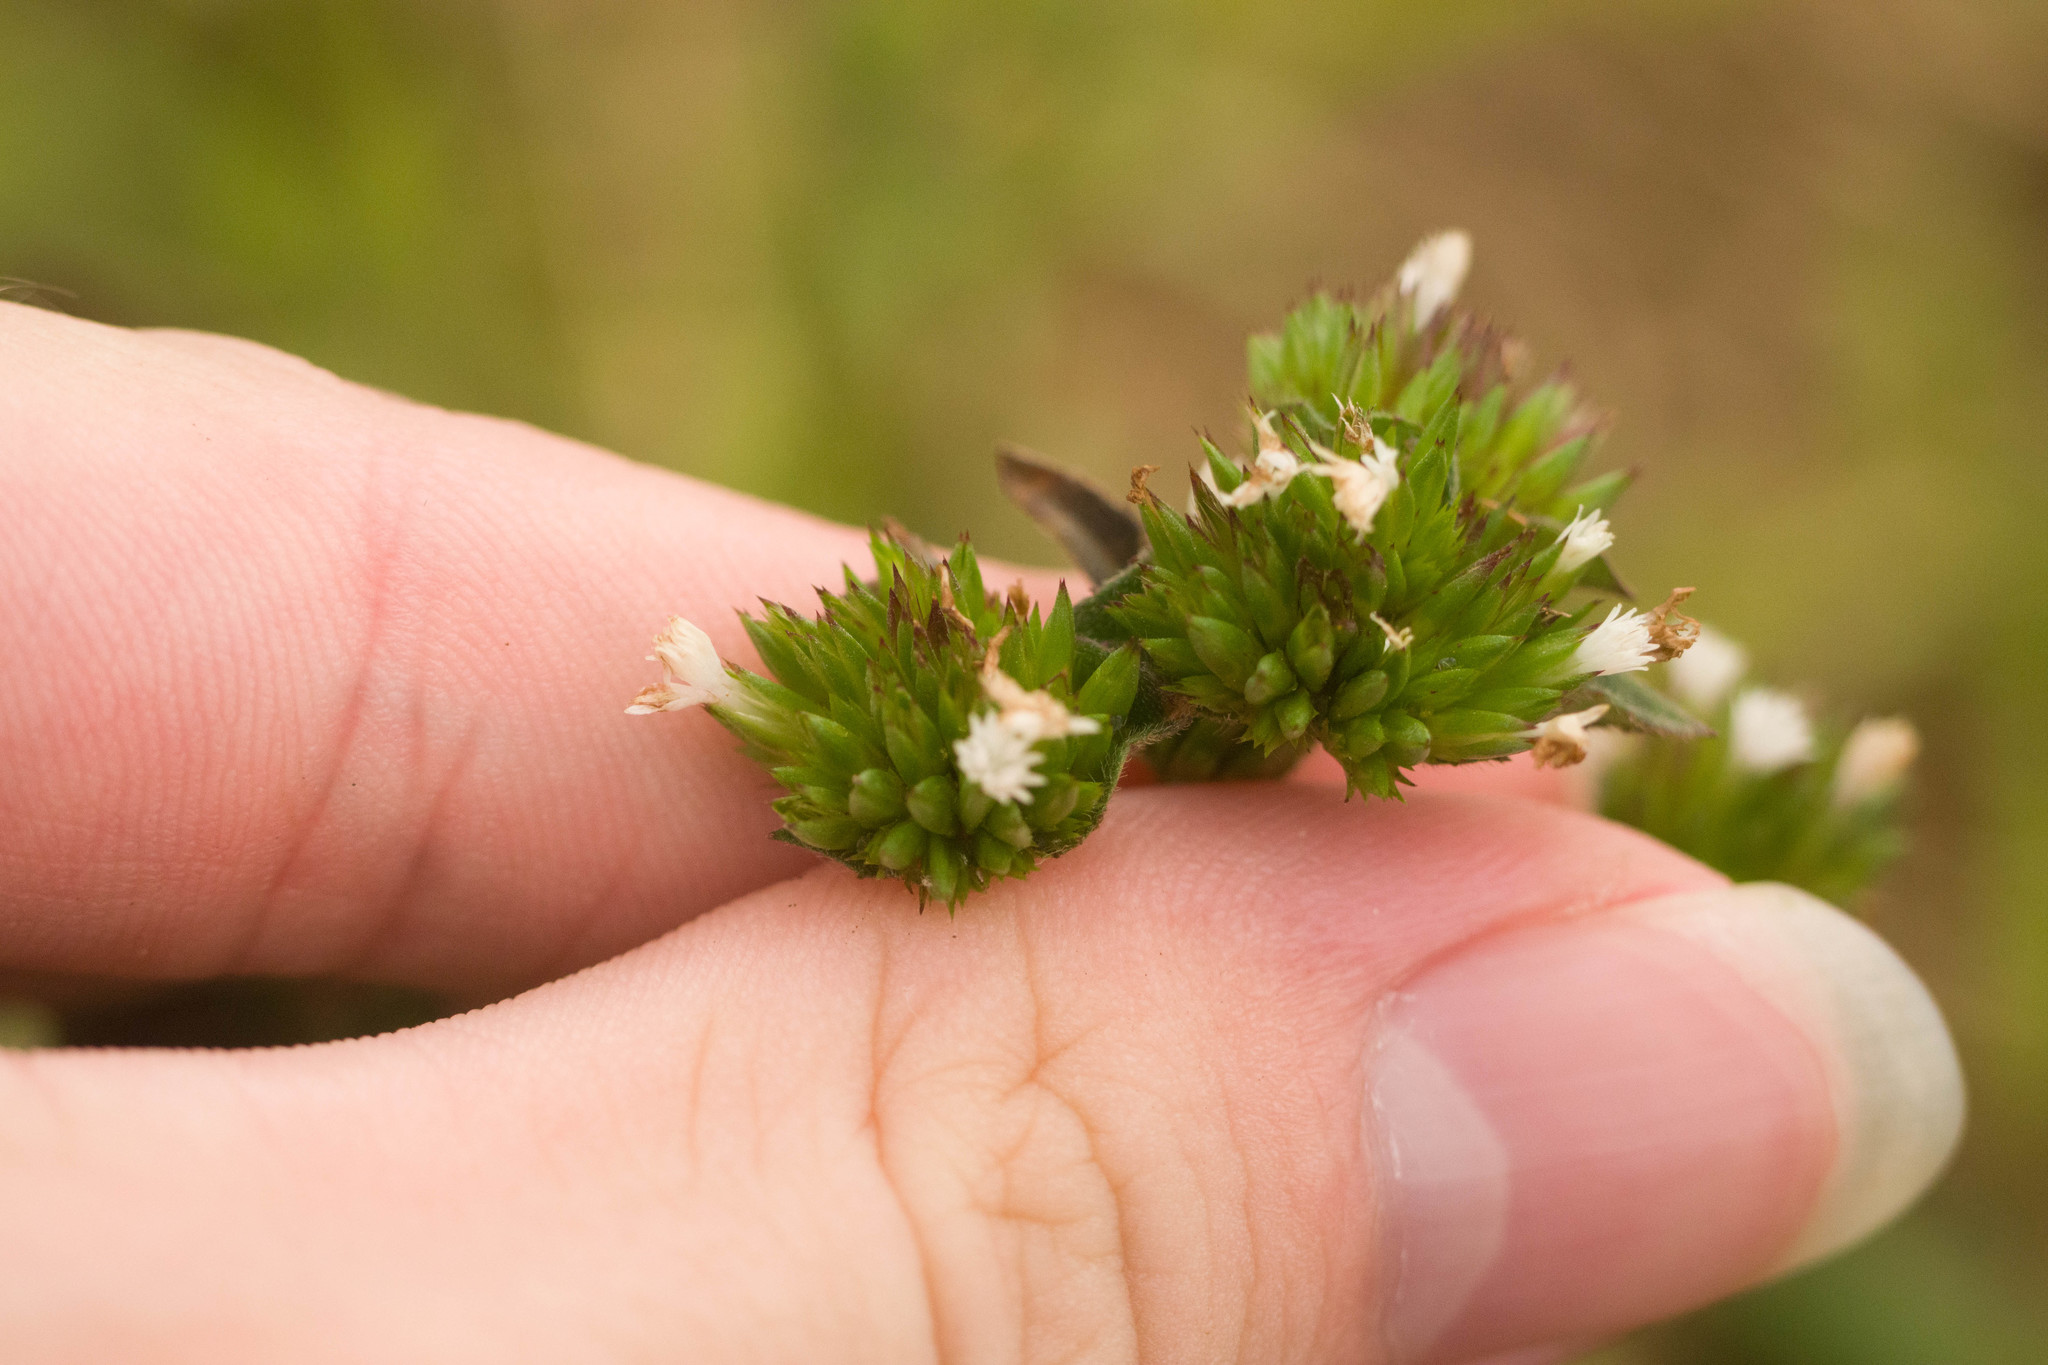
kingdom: Plantae
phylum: Tracheophyta
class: Magnoliopsida
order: Asterales
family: Asteraceae
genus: Elephantopus
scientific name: Elephantopus mollis
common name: Soft elephantsfoot
